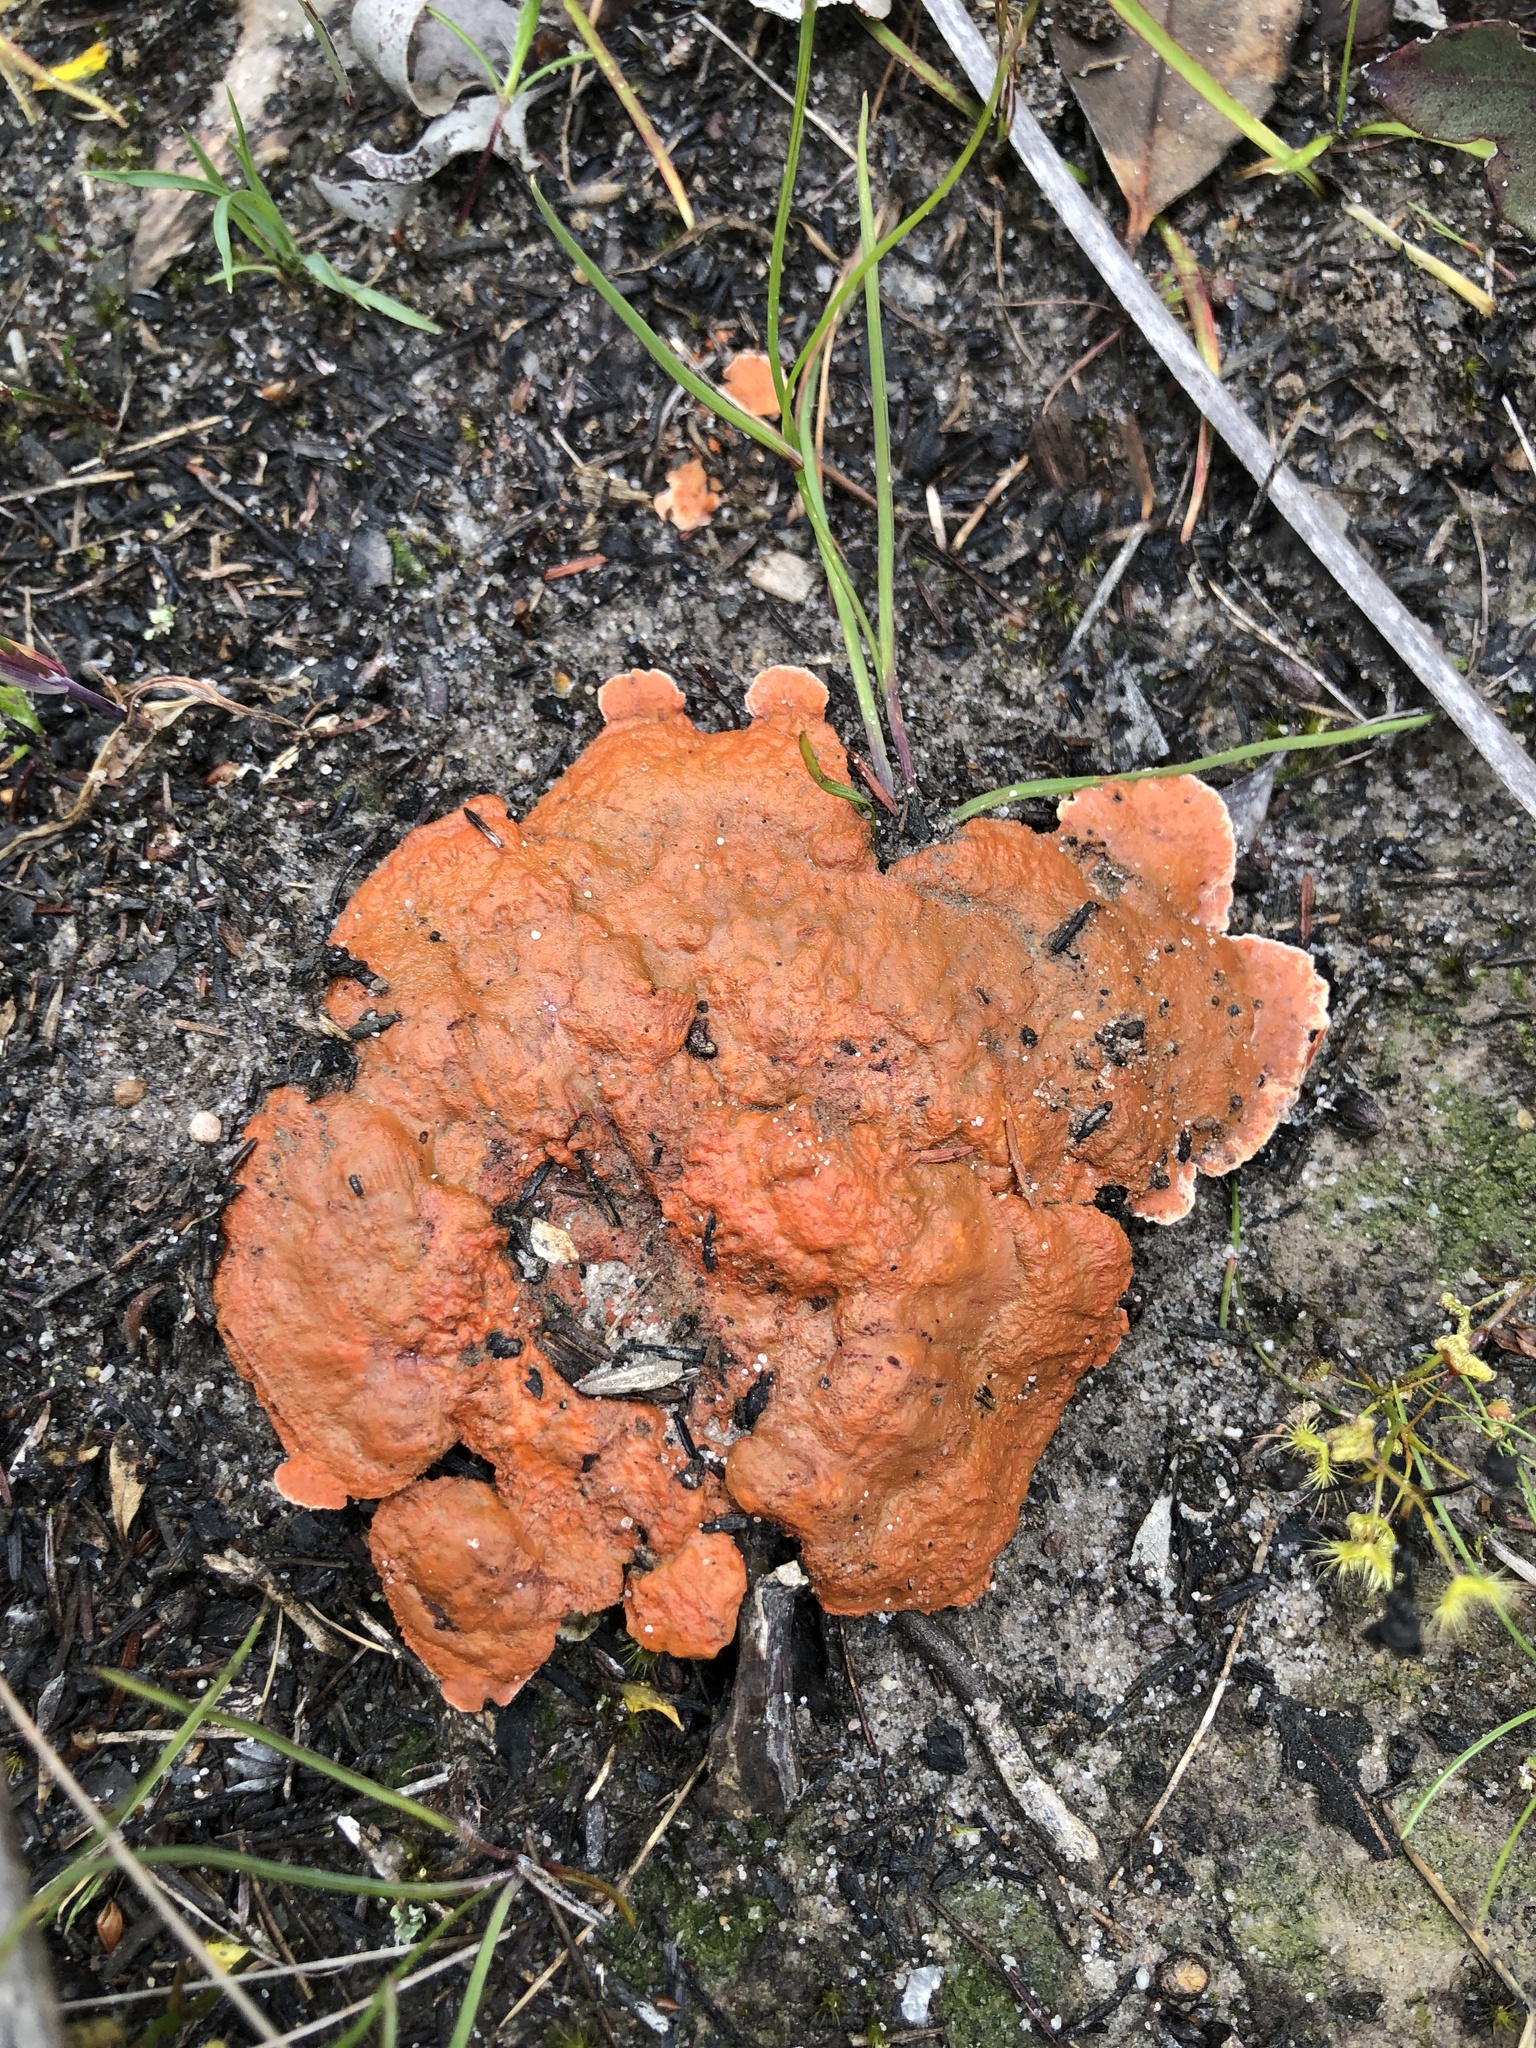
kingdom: Fungi
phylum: Basidiomycota
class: Agaricomycetes
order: Polyporales
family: Polyporaceae
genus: Trametes
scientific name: Trametes coccinea
